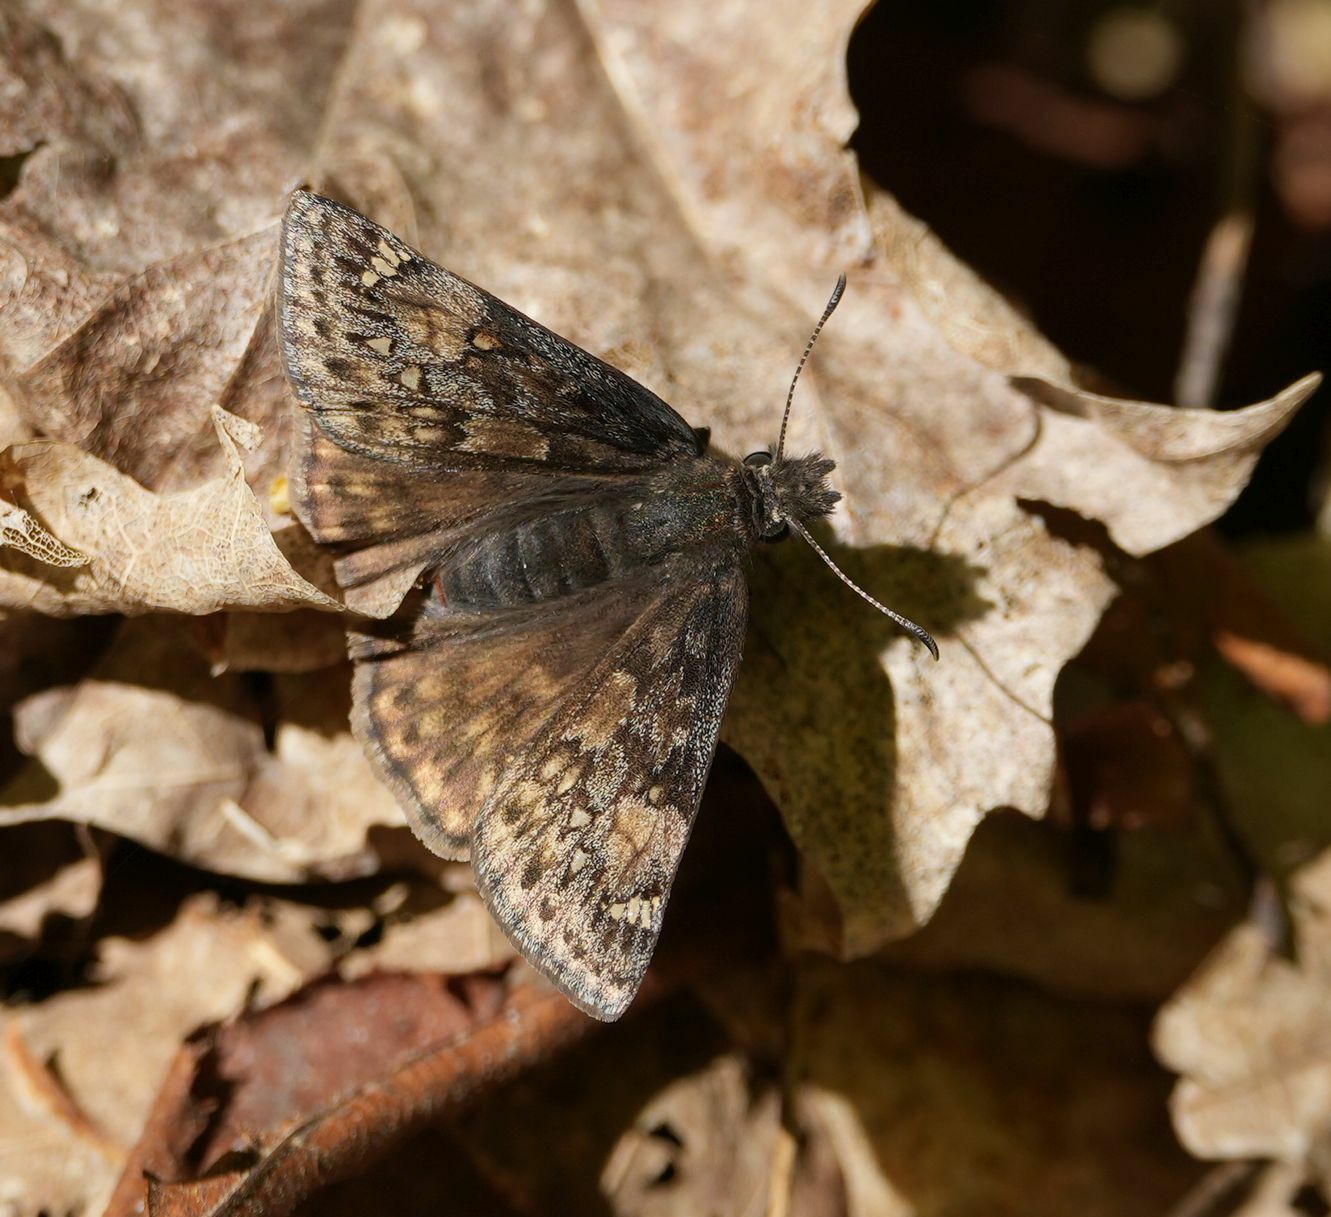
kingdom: Animalia
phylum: Arthropoda
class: Insecta
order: Lepidoptera
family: Hesperiidae
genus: Erynnis
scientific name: Erynnis juvenalis
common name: Juvenal's duskywing
